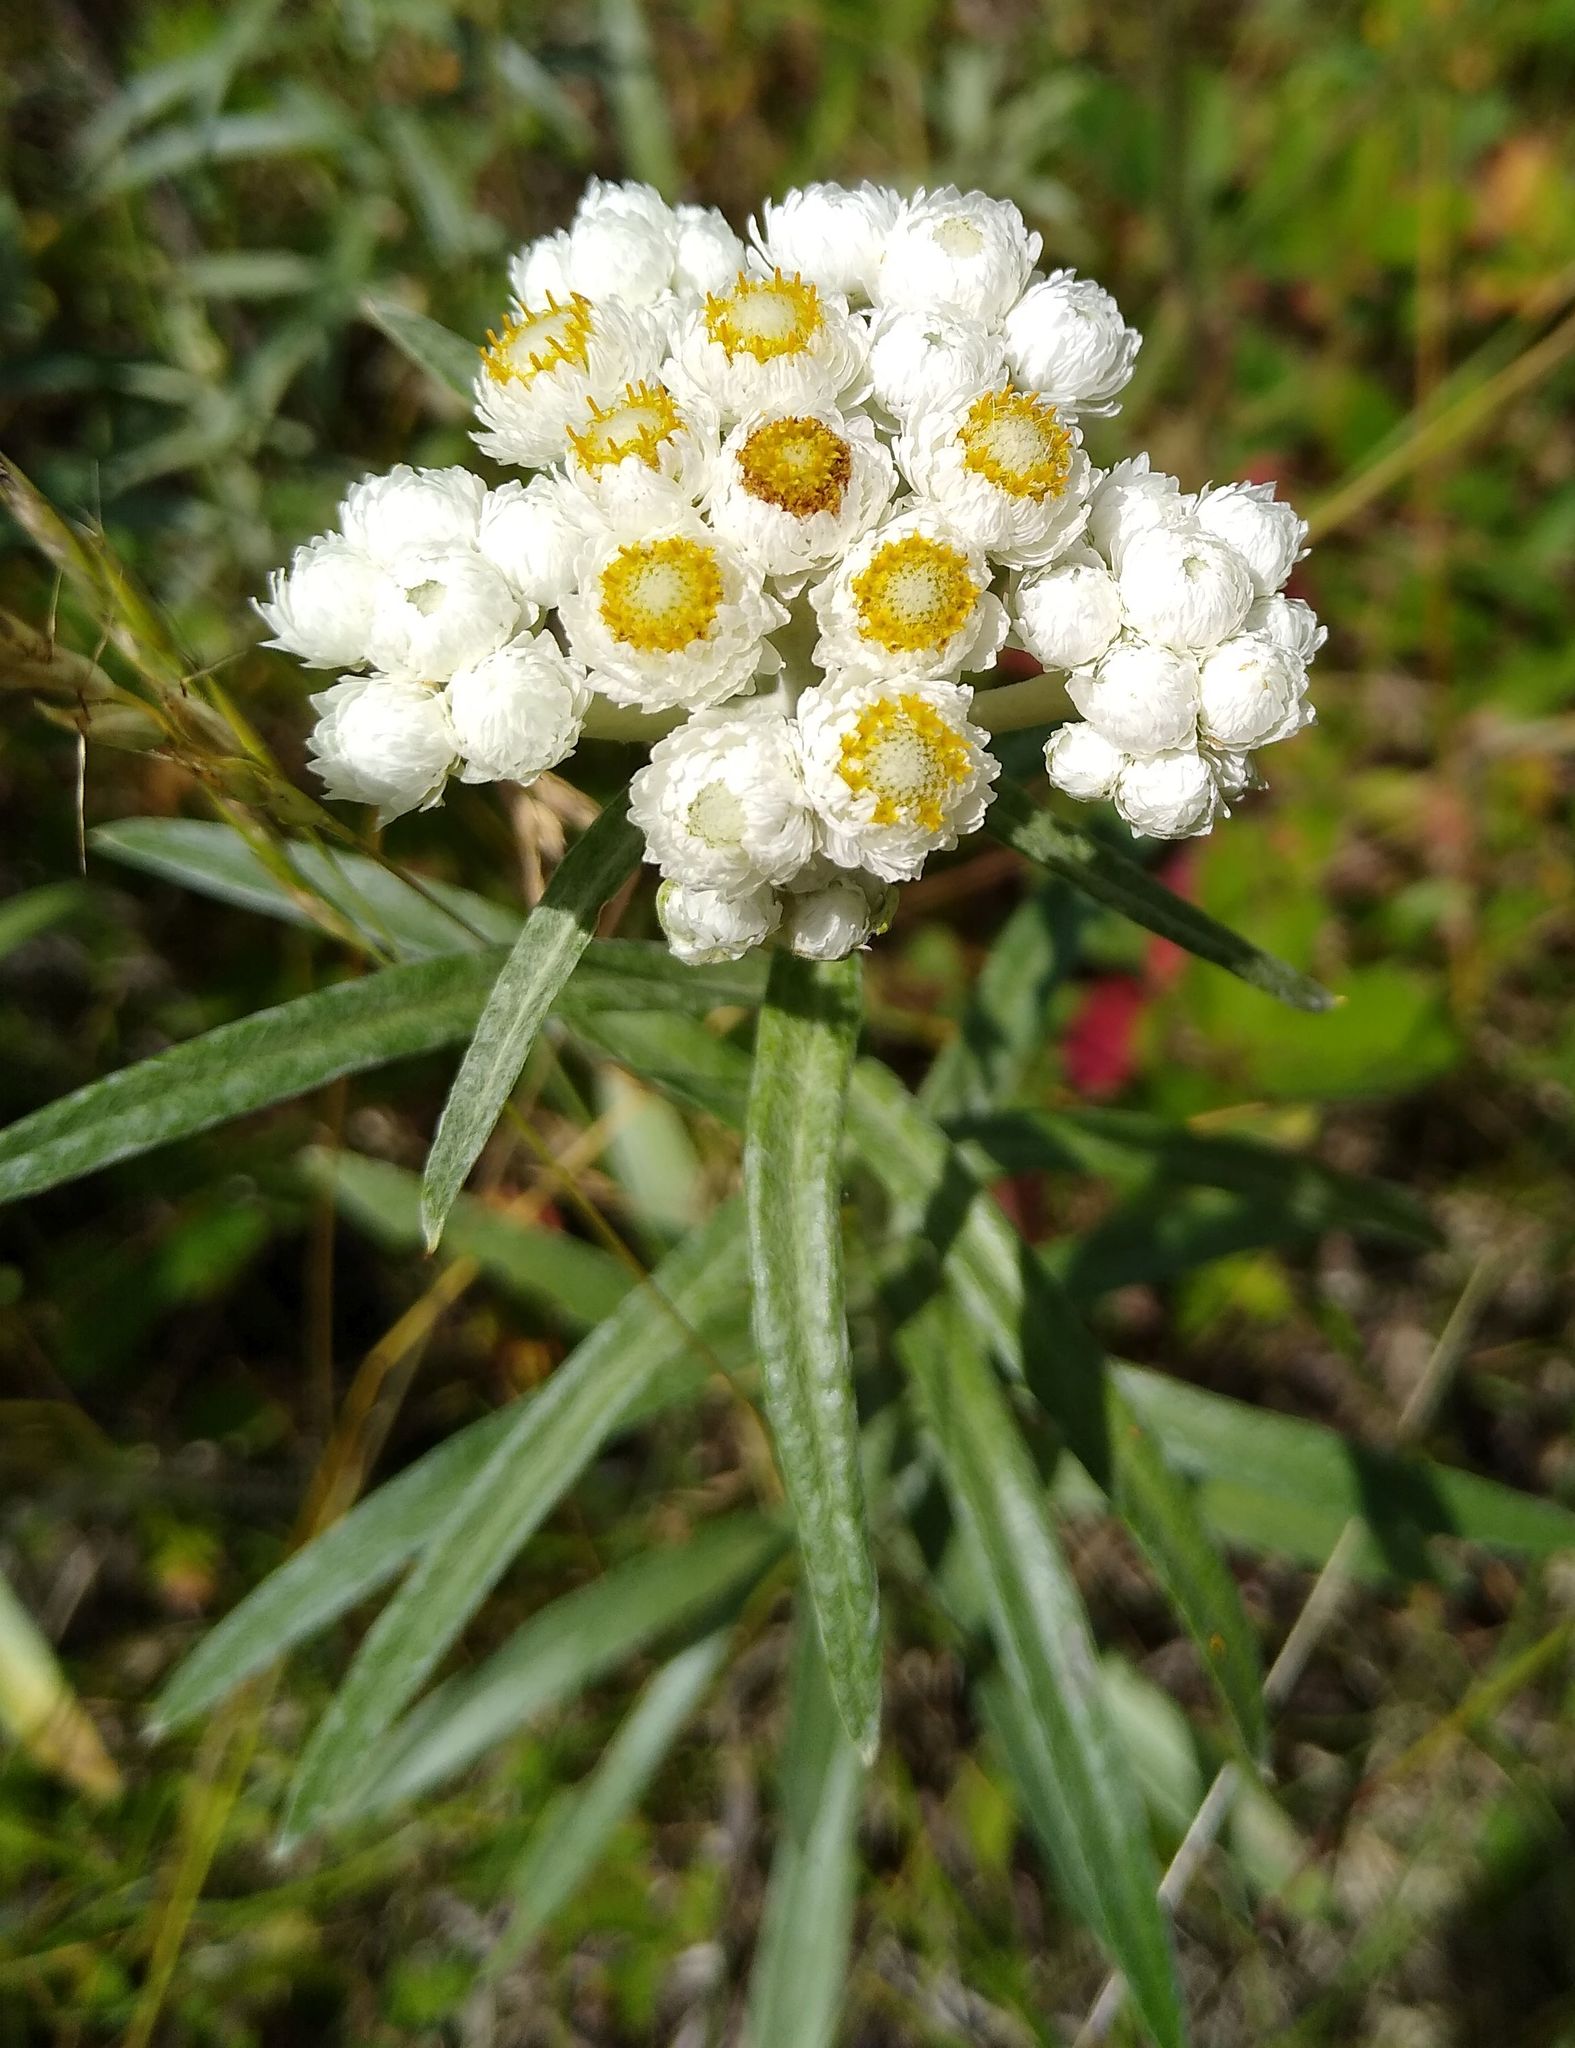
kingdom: Plantae
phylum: Tracheophyta
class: Magnoliopsida
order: Asterales
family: Asteraceae
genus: Anaphalis
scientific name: Anaphalis margaritacea
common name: Pearly everlasting
